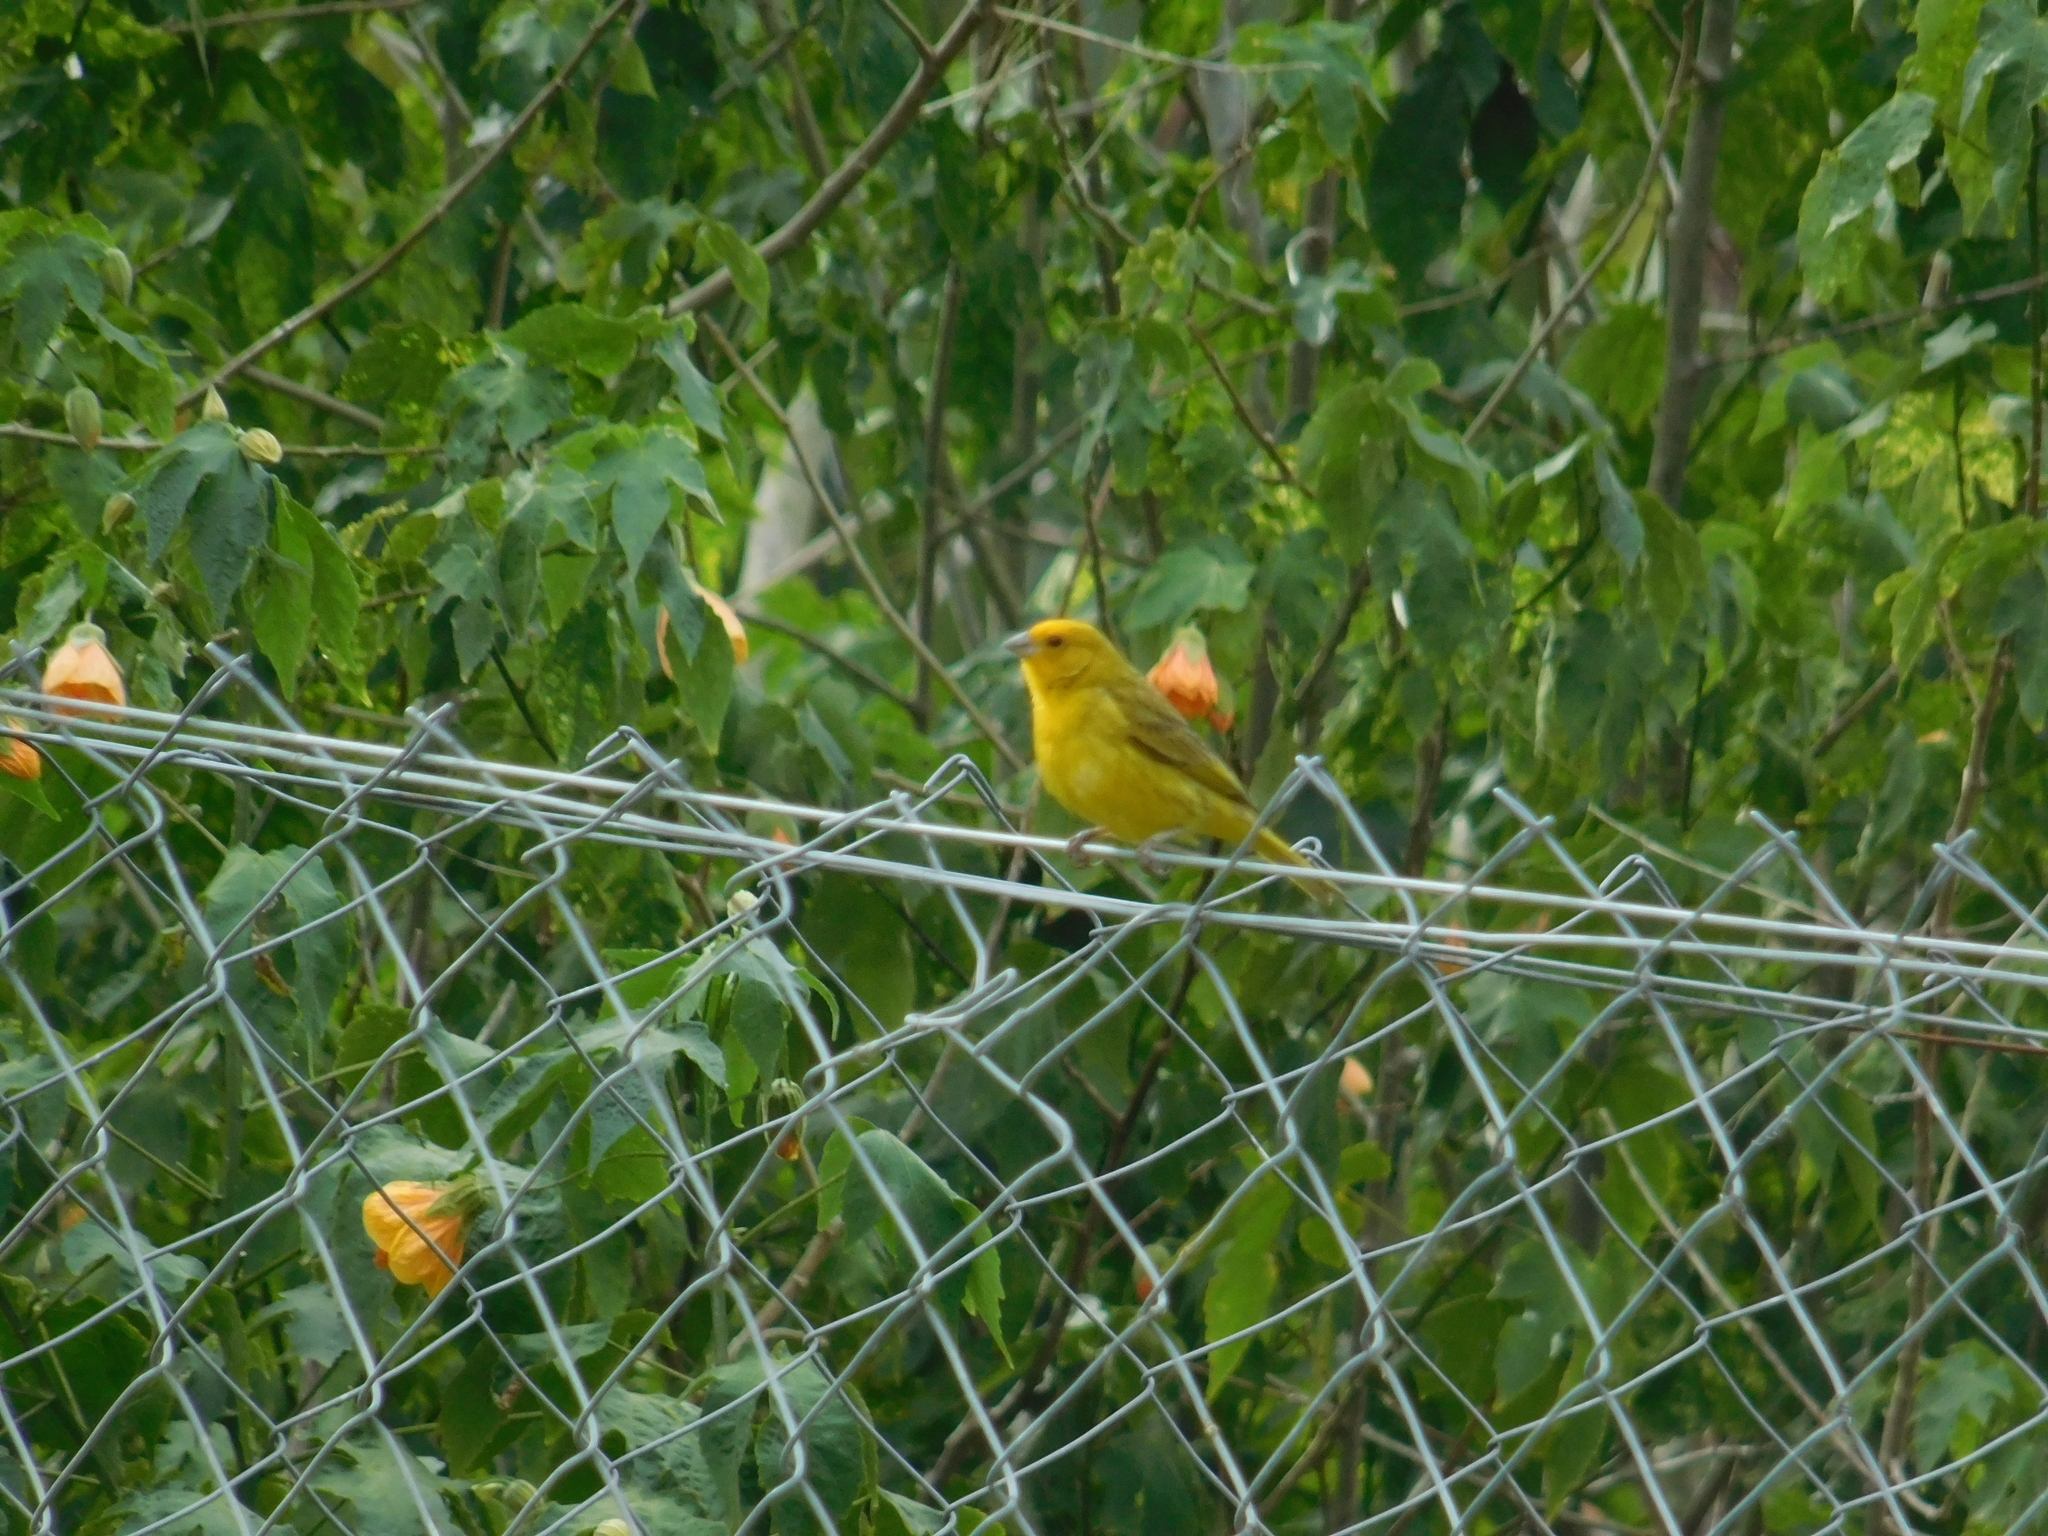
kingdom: Animalia
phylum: Chordata
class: Aves
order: Passeriformes
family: Thraupidae
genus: Sicalis
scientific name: Sicalis flaveola
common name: Saffron finch
